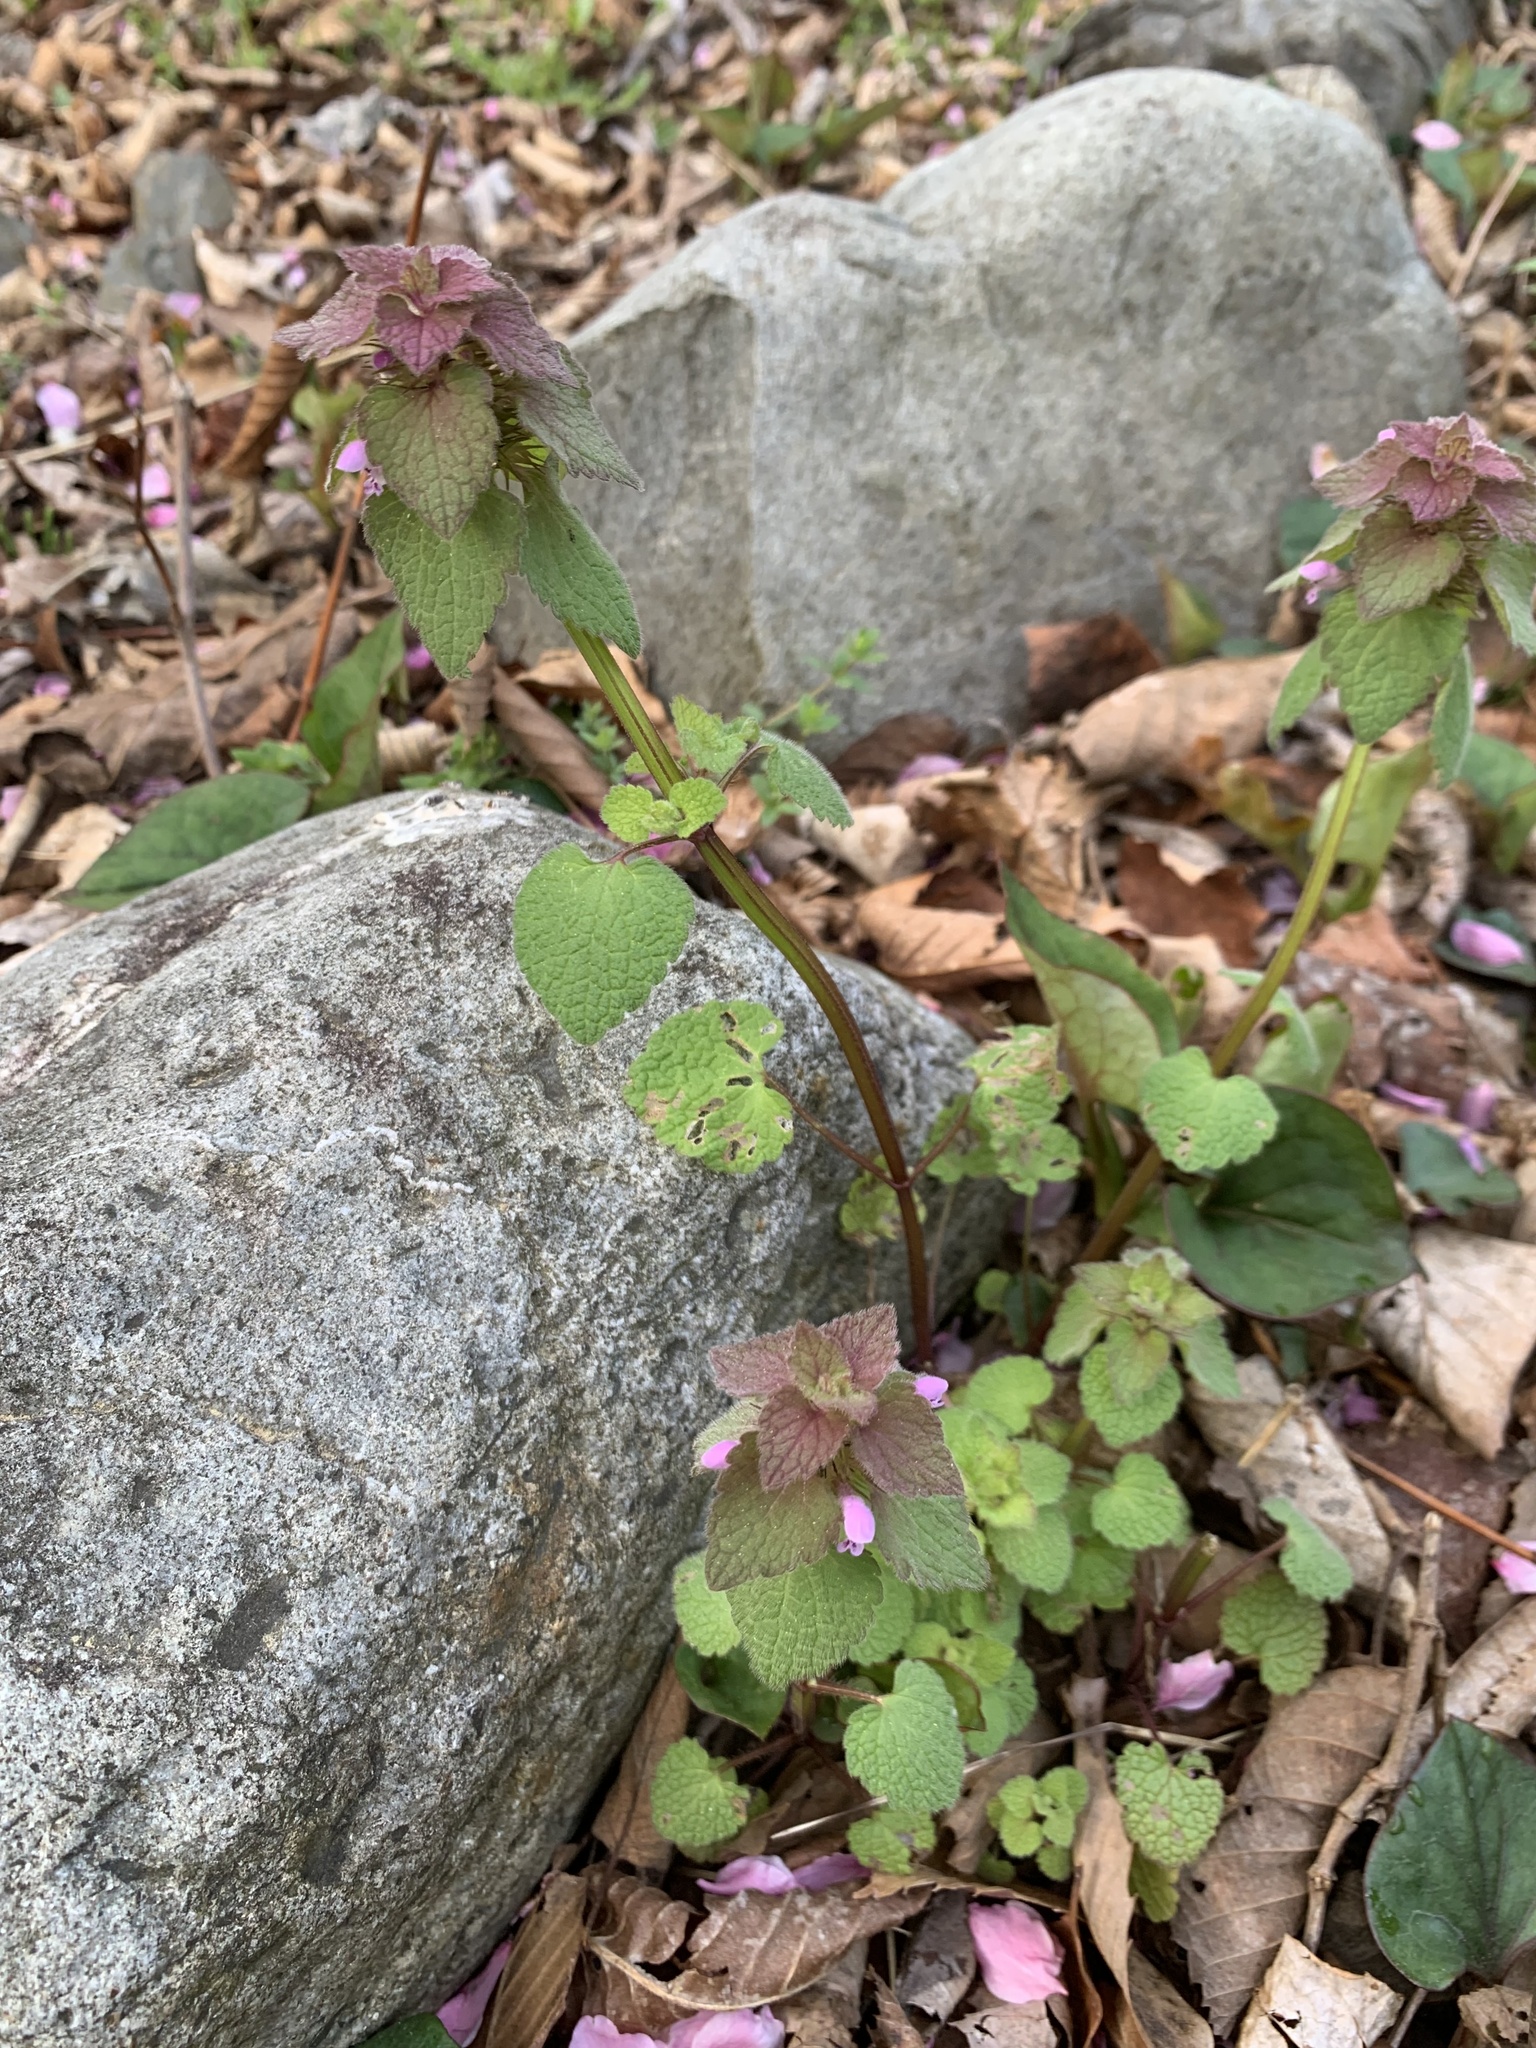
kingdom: Plantae
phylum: Tracheophyta
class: Magnoliopsida
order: Lamiales
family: Lamiaceae
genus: Lamium
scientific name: Lamium purpureum
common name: Red dead-nettle
